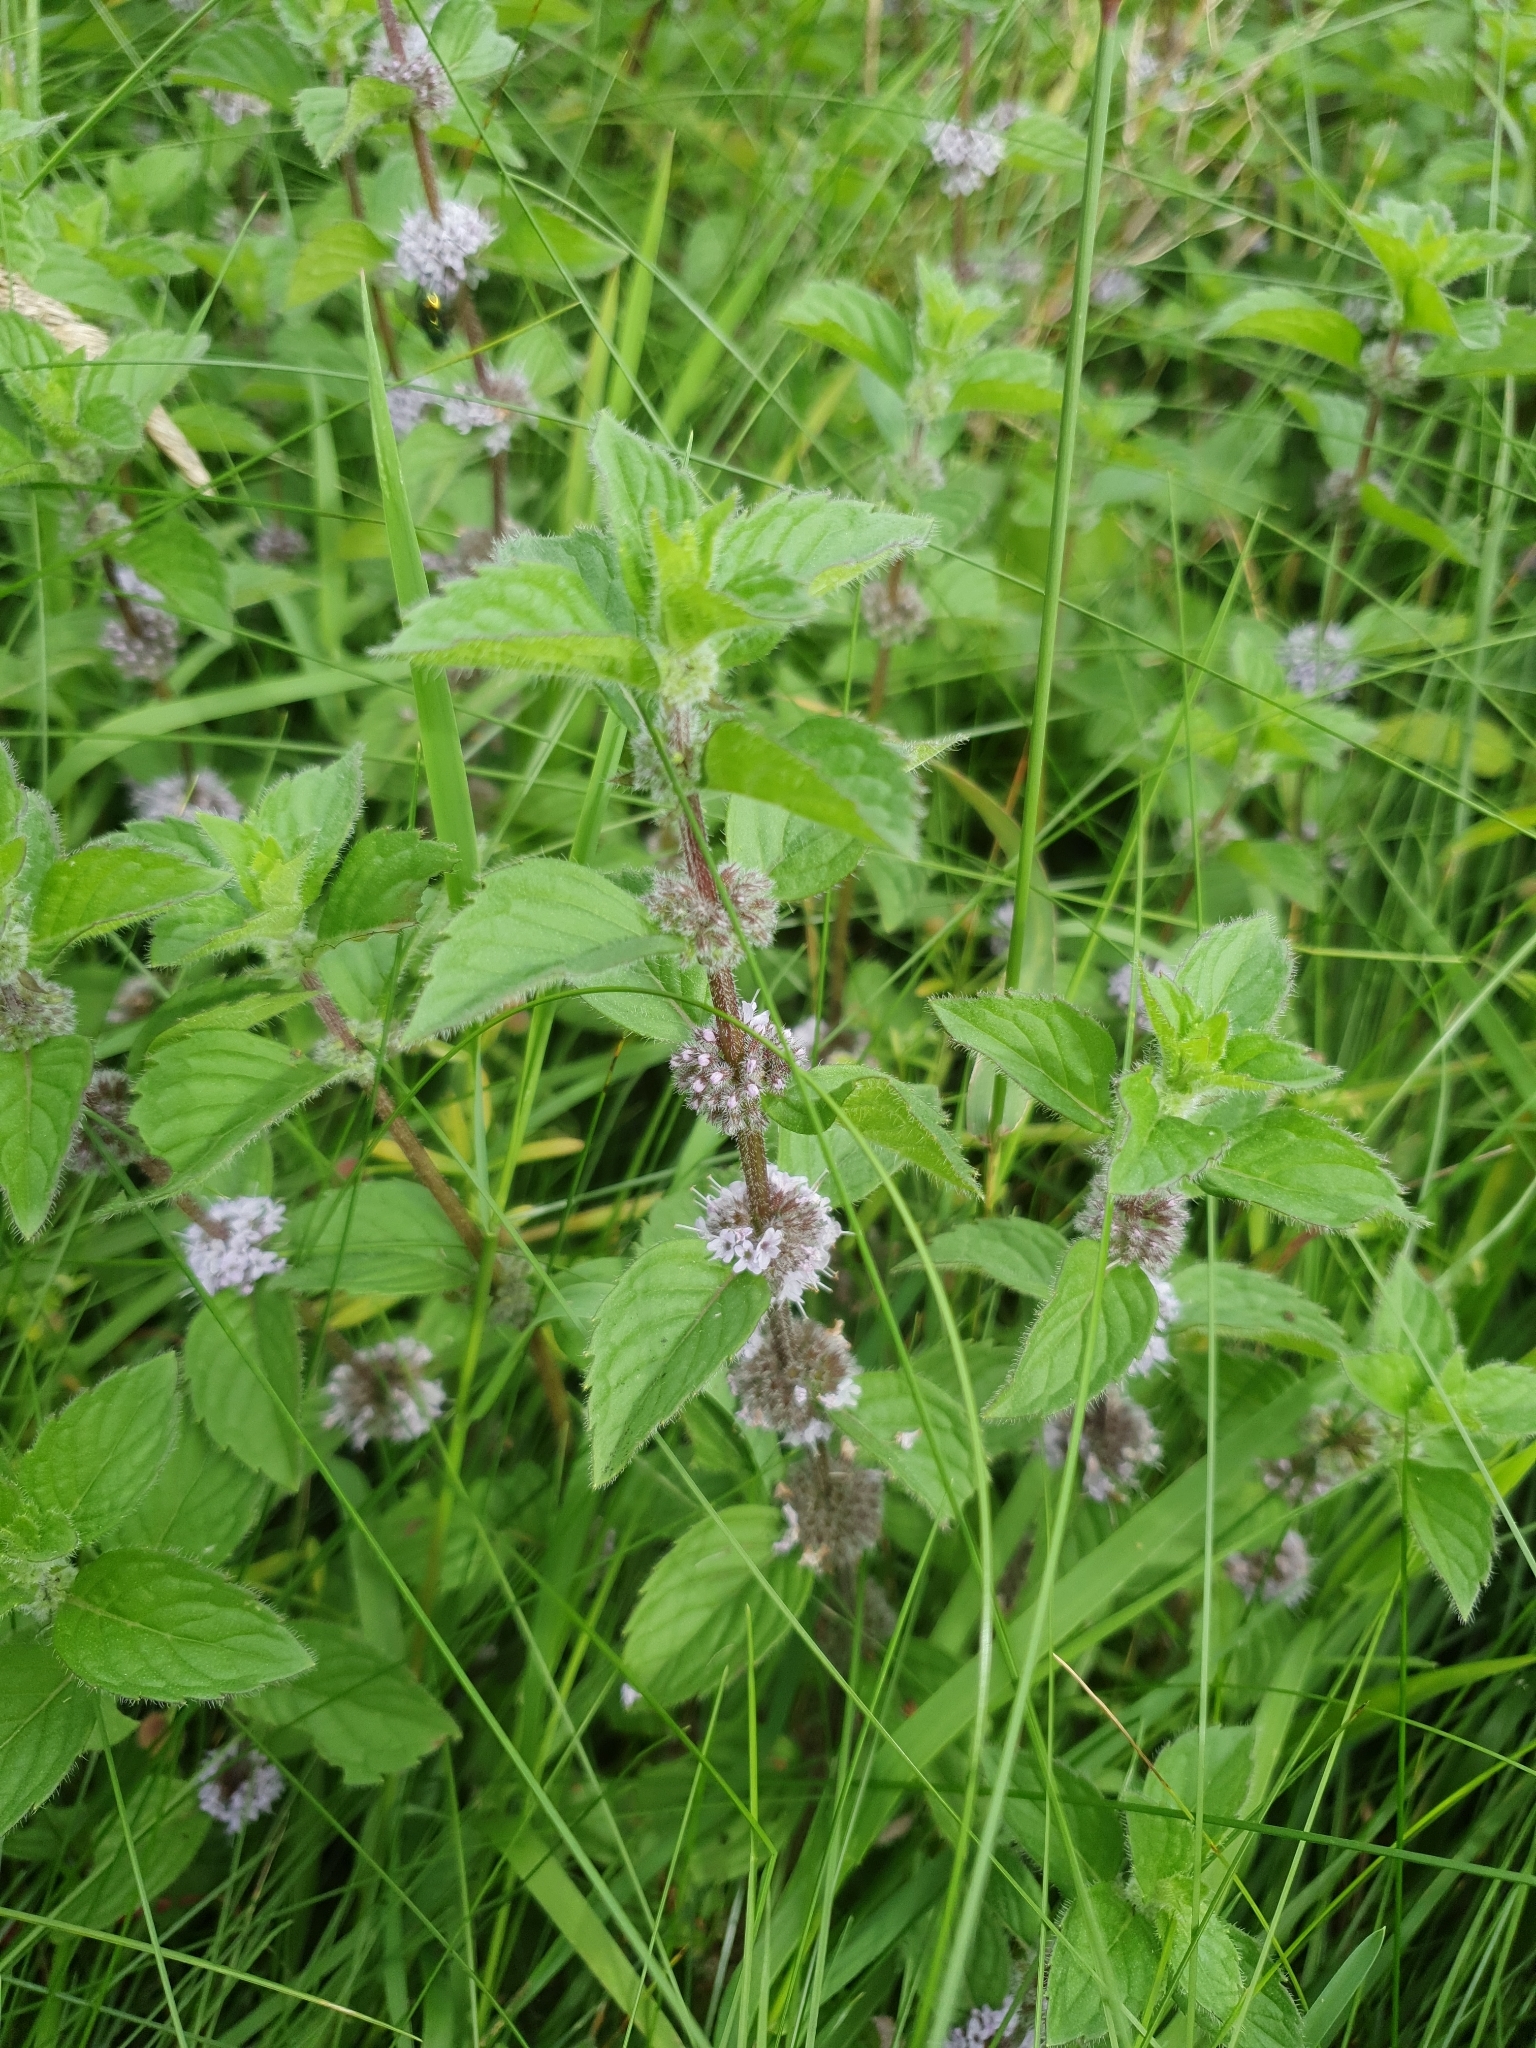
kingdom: Plantae
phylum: Tracheophyta
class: Magnoliopsida
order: Lamiales
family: Lamiaceae
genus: Mentha
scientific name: Mentha arvensis
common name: Corn mint
